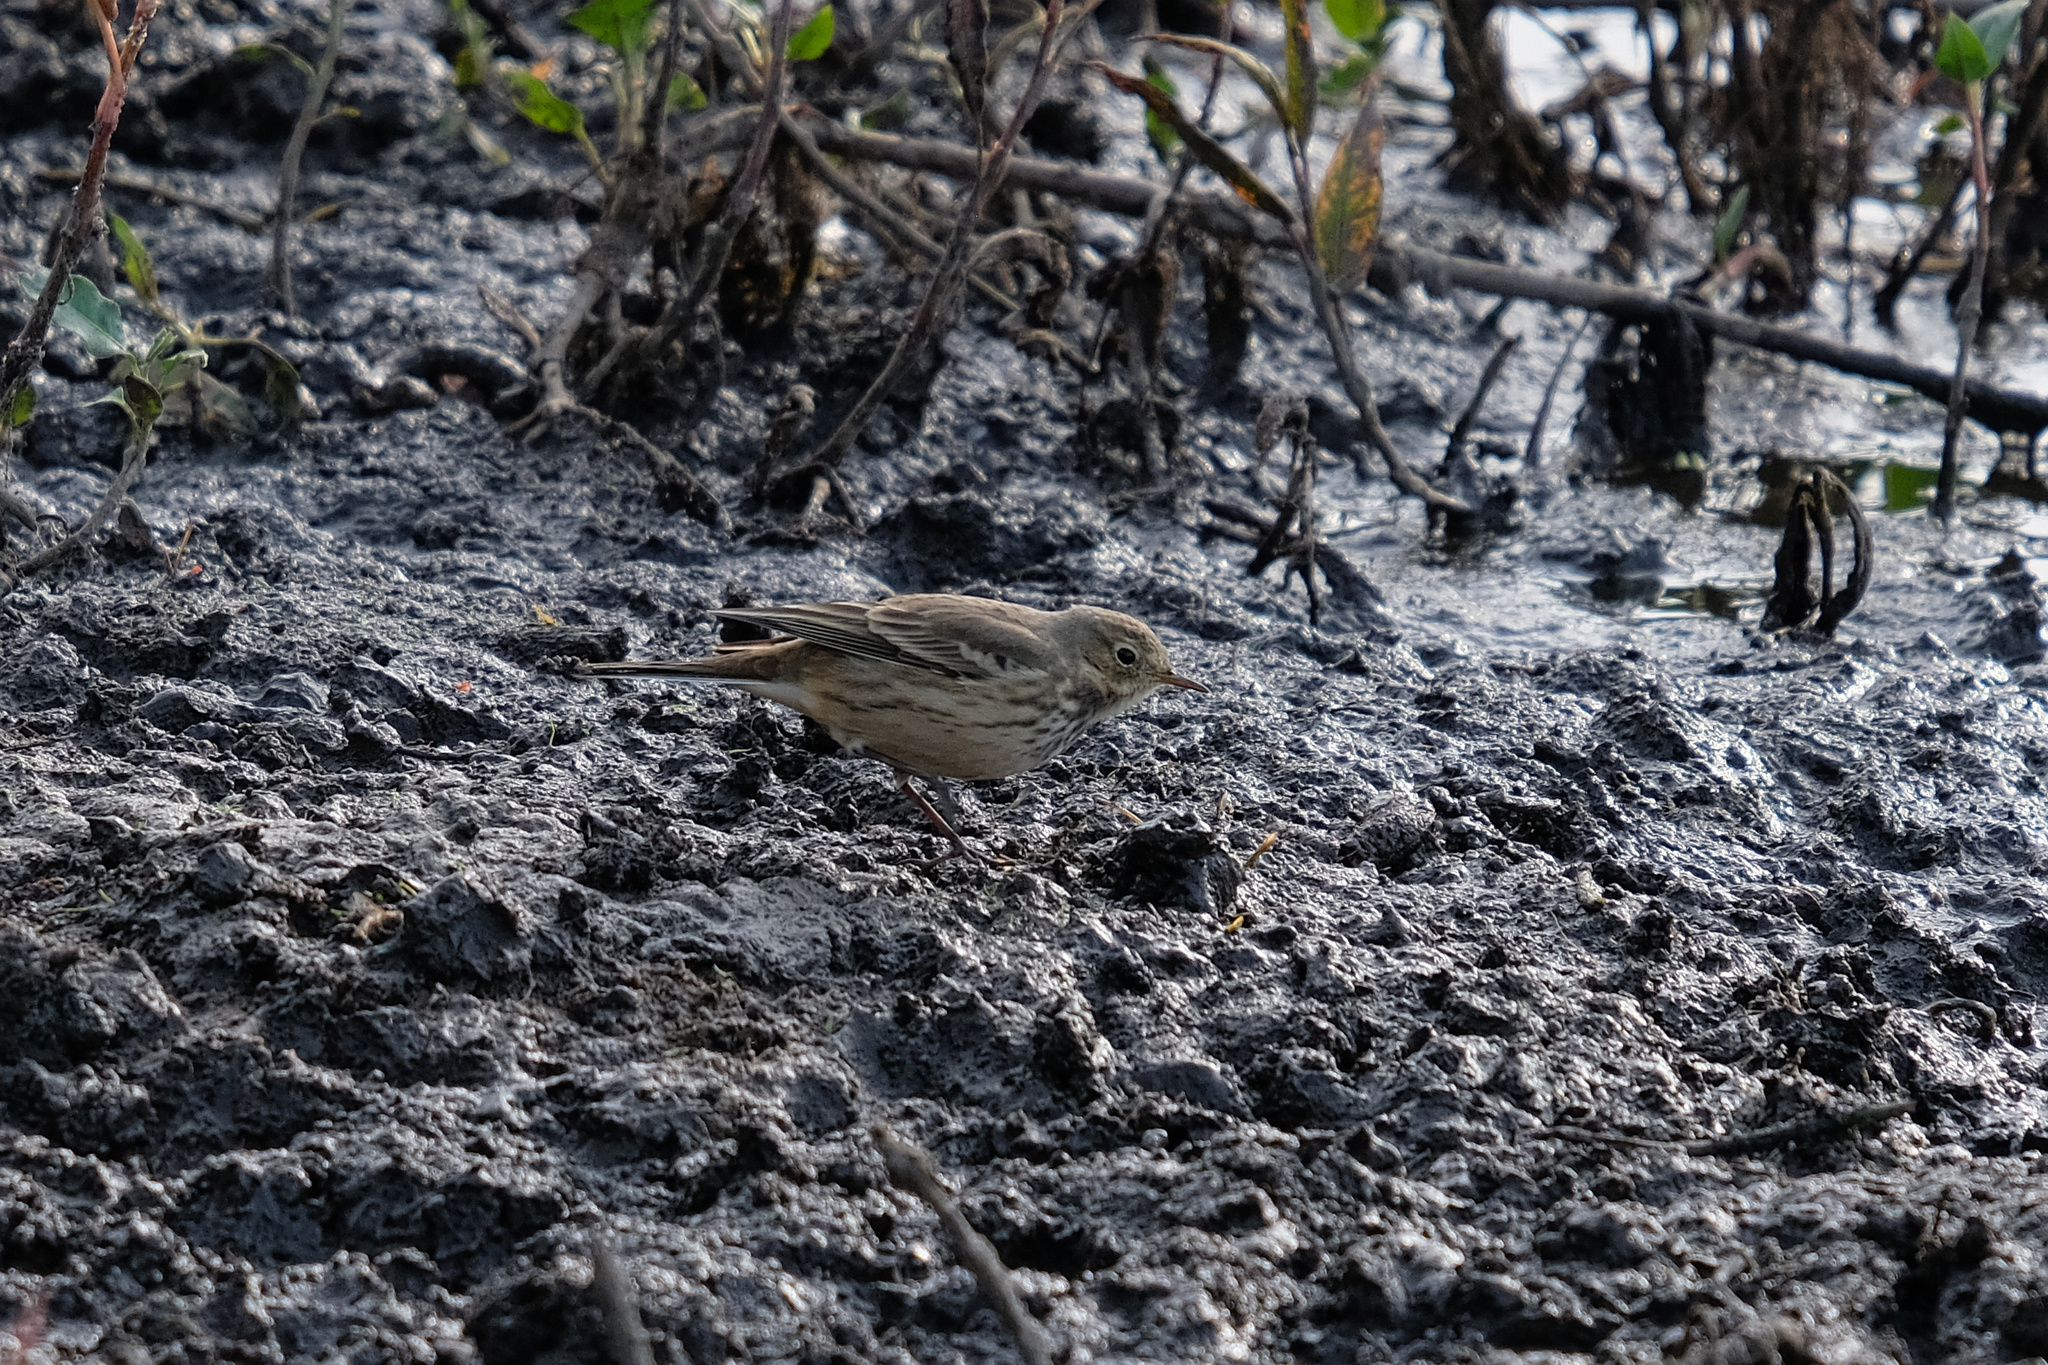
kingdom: Animalia
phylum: Chordata
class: Aves
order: Passeriformes
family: Motacillidae
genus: Anthus
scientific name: Anthus rubescens
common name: Buff-bellied pipit
